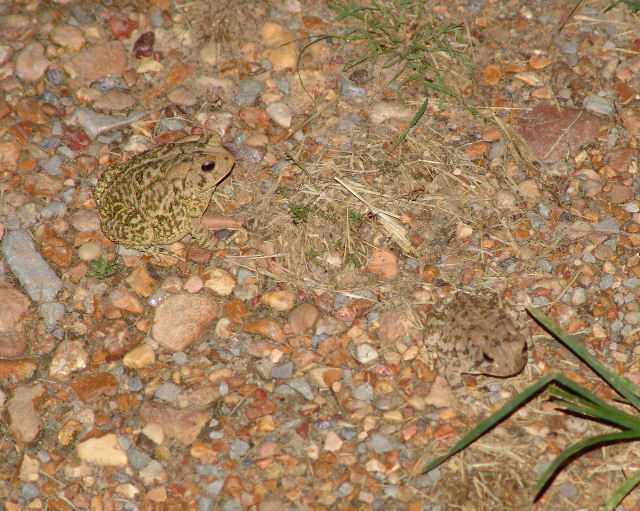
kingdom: Animalia
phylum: Chordata
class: Amphibia
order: Anura
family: Bufonidae
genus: Anaxyrus
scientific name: Anaxyrus fowleri
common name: Fowler's toad
